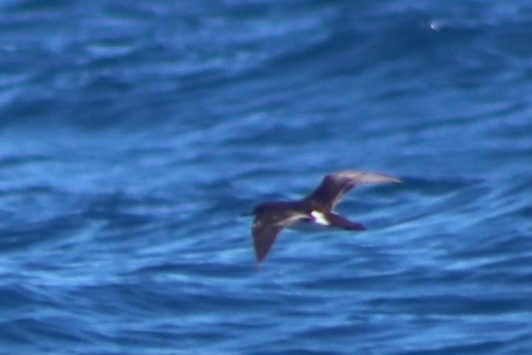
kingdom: Animalia
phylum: Chordata
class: Aves
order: Procellariiformes
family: Procellariidae
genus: Puffinus
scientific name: Puffinus gavia
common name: Fluttering shearwater
